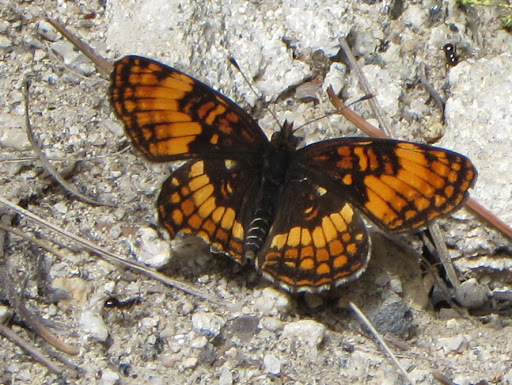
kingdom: Animalia
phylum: Arthropoda
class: Insecta
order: Lepidoptera
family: Nymphalidae
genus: Chlosyne
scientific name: Chlosyne hoffmanni
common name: Hoffmann's checkerspot
